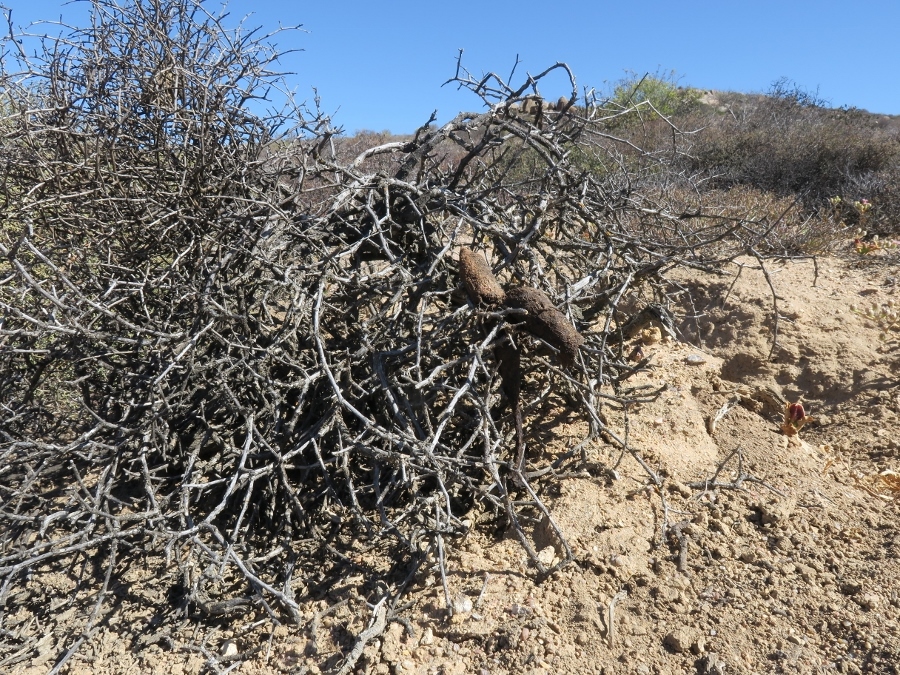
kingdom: Animalia
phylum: Chordata
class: Mammalia
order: Carnivora
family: Canidae
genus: Lupulella
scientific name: Lupulella
